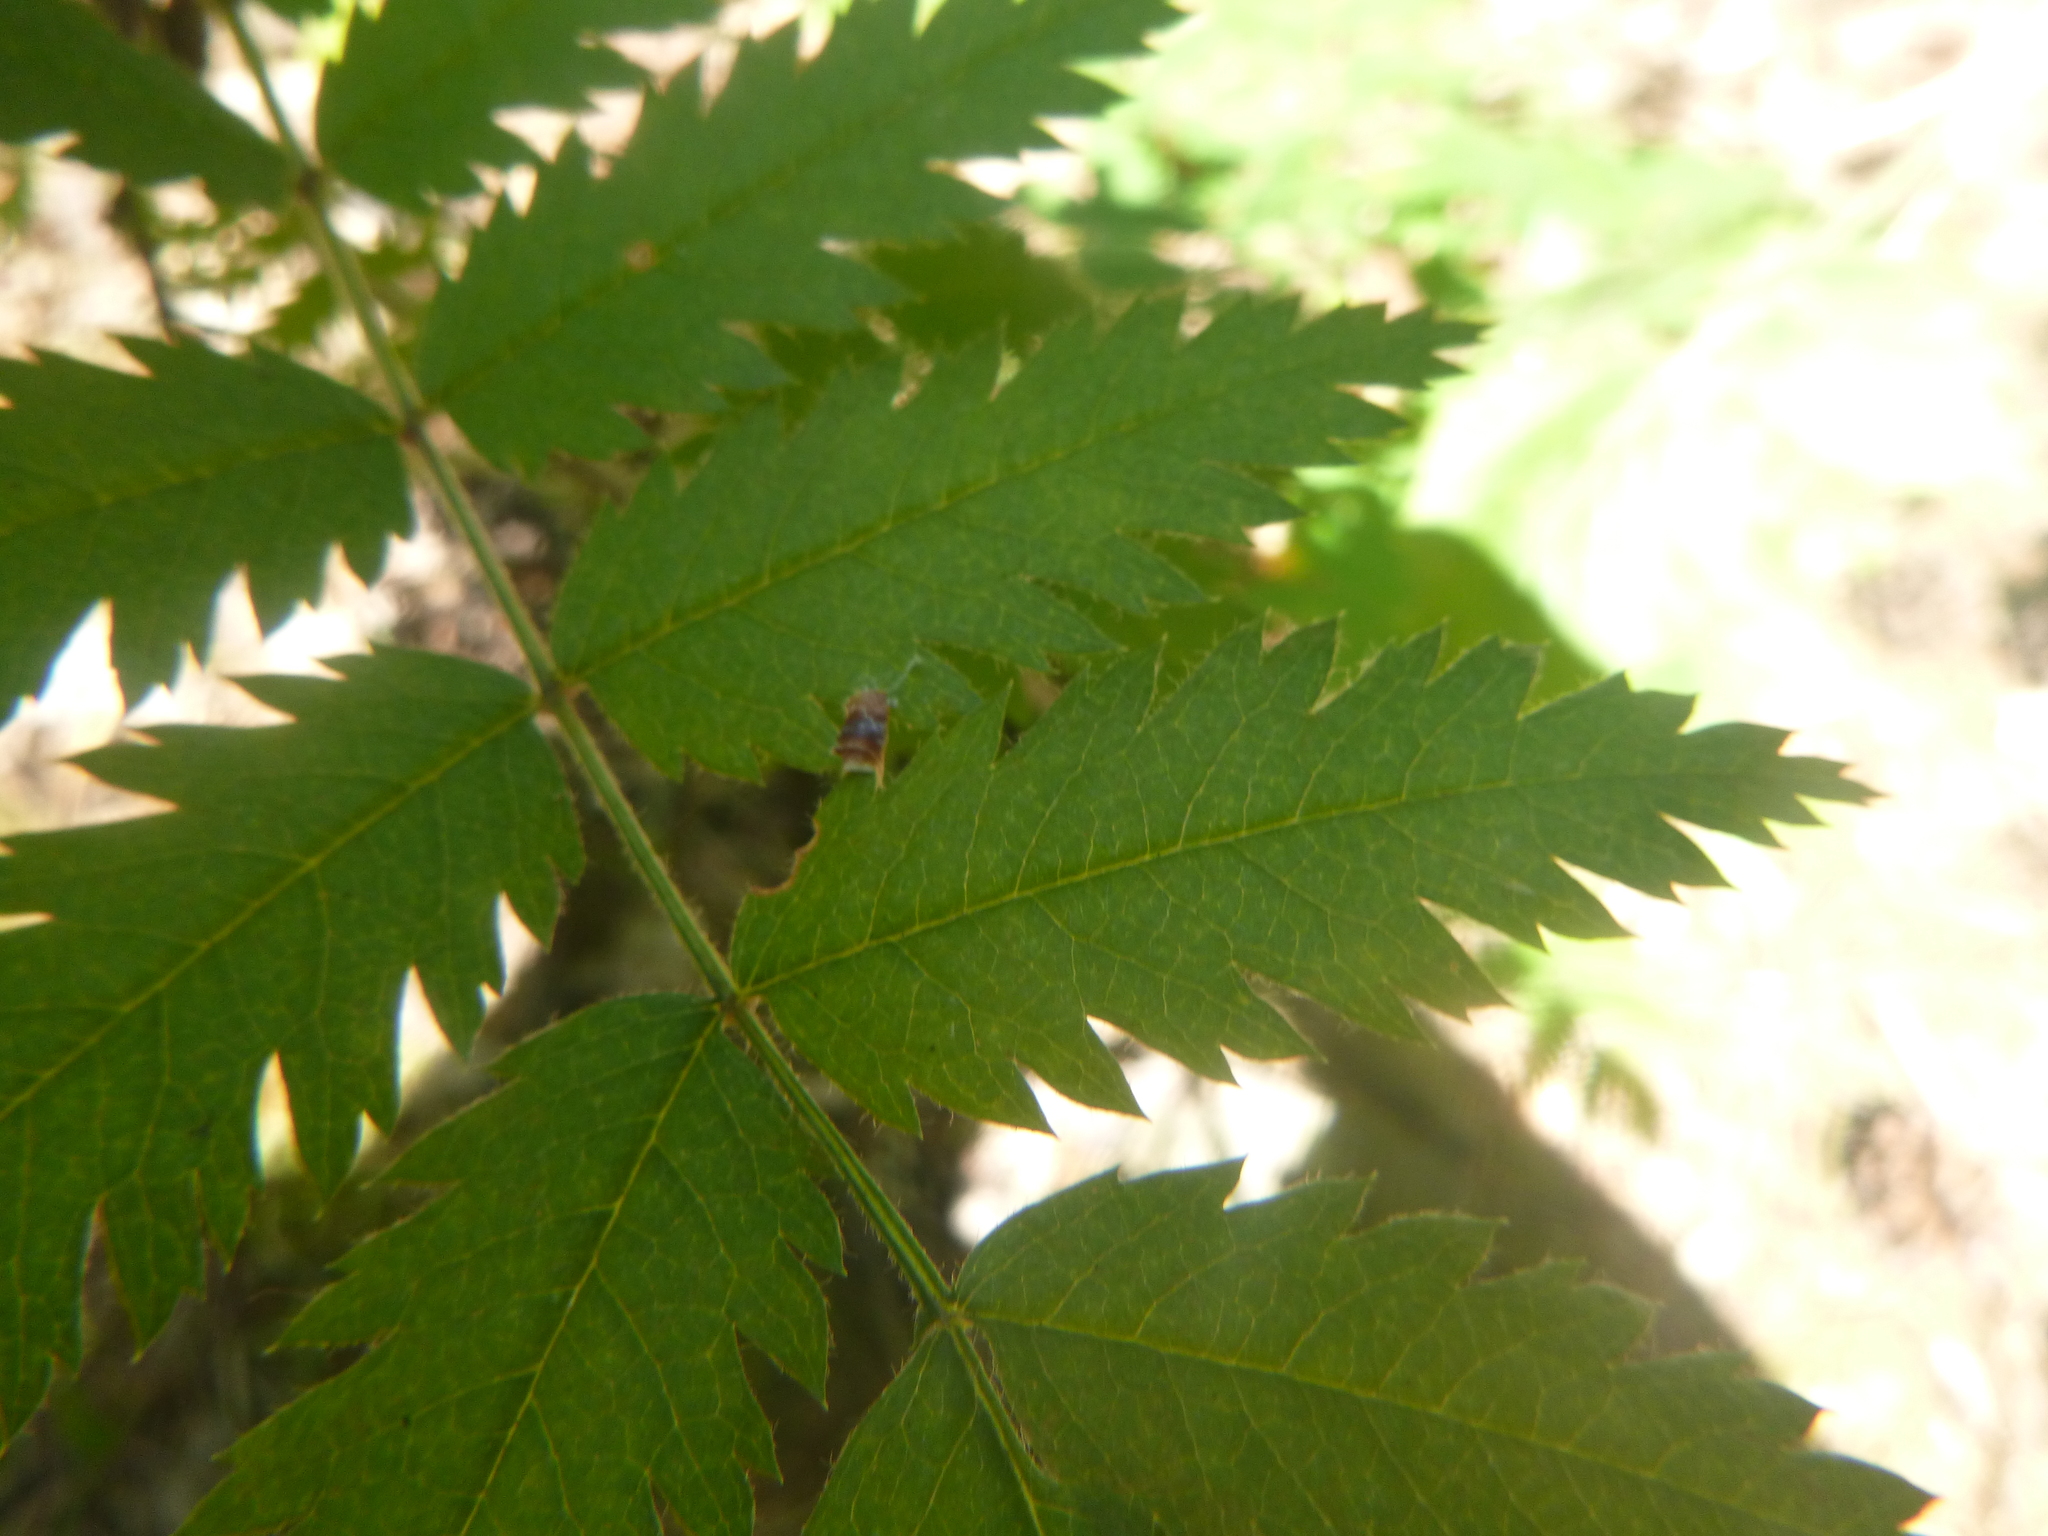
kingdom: Plantae
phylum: Tracheophyta
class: Magnoliopsida
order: Rosales
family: Rosaceae
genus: Sorbus
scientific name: Sorbus aucuparia
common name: Rowan
